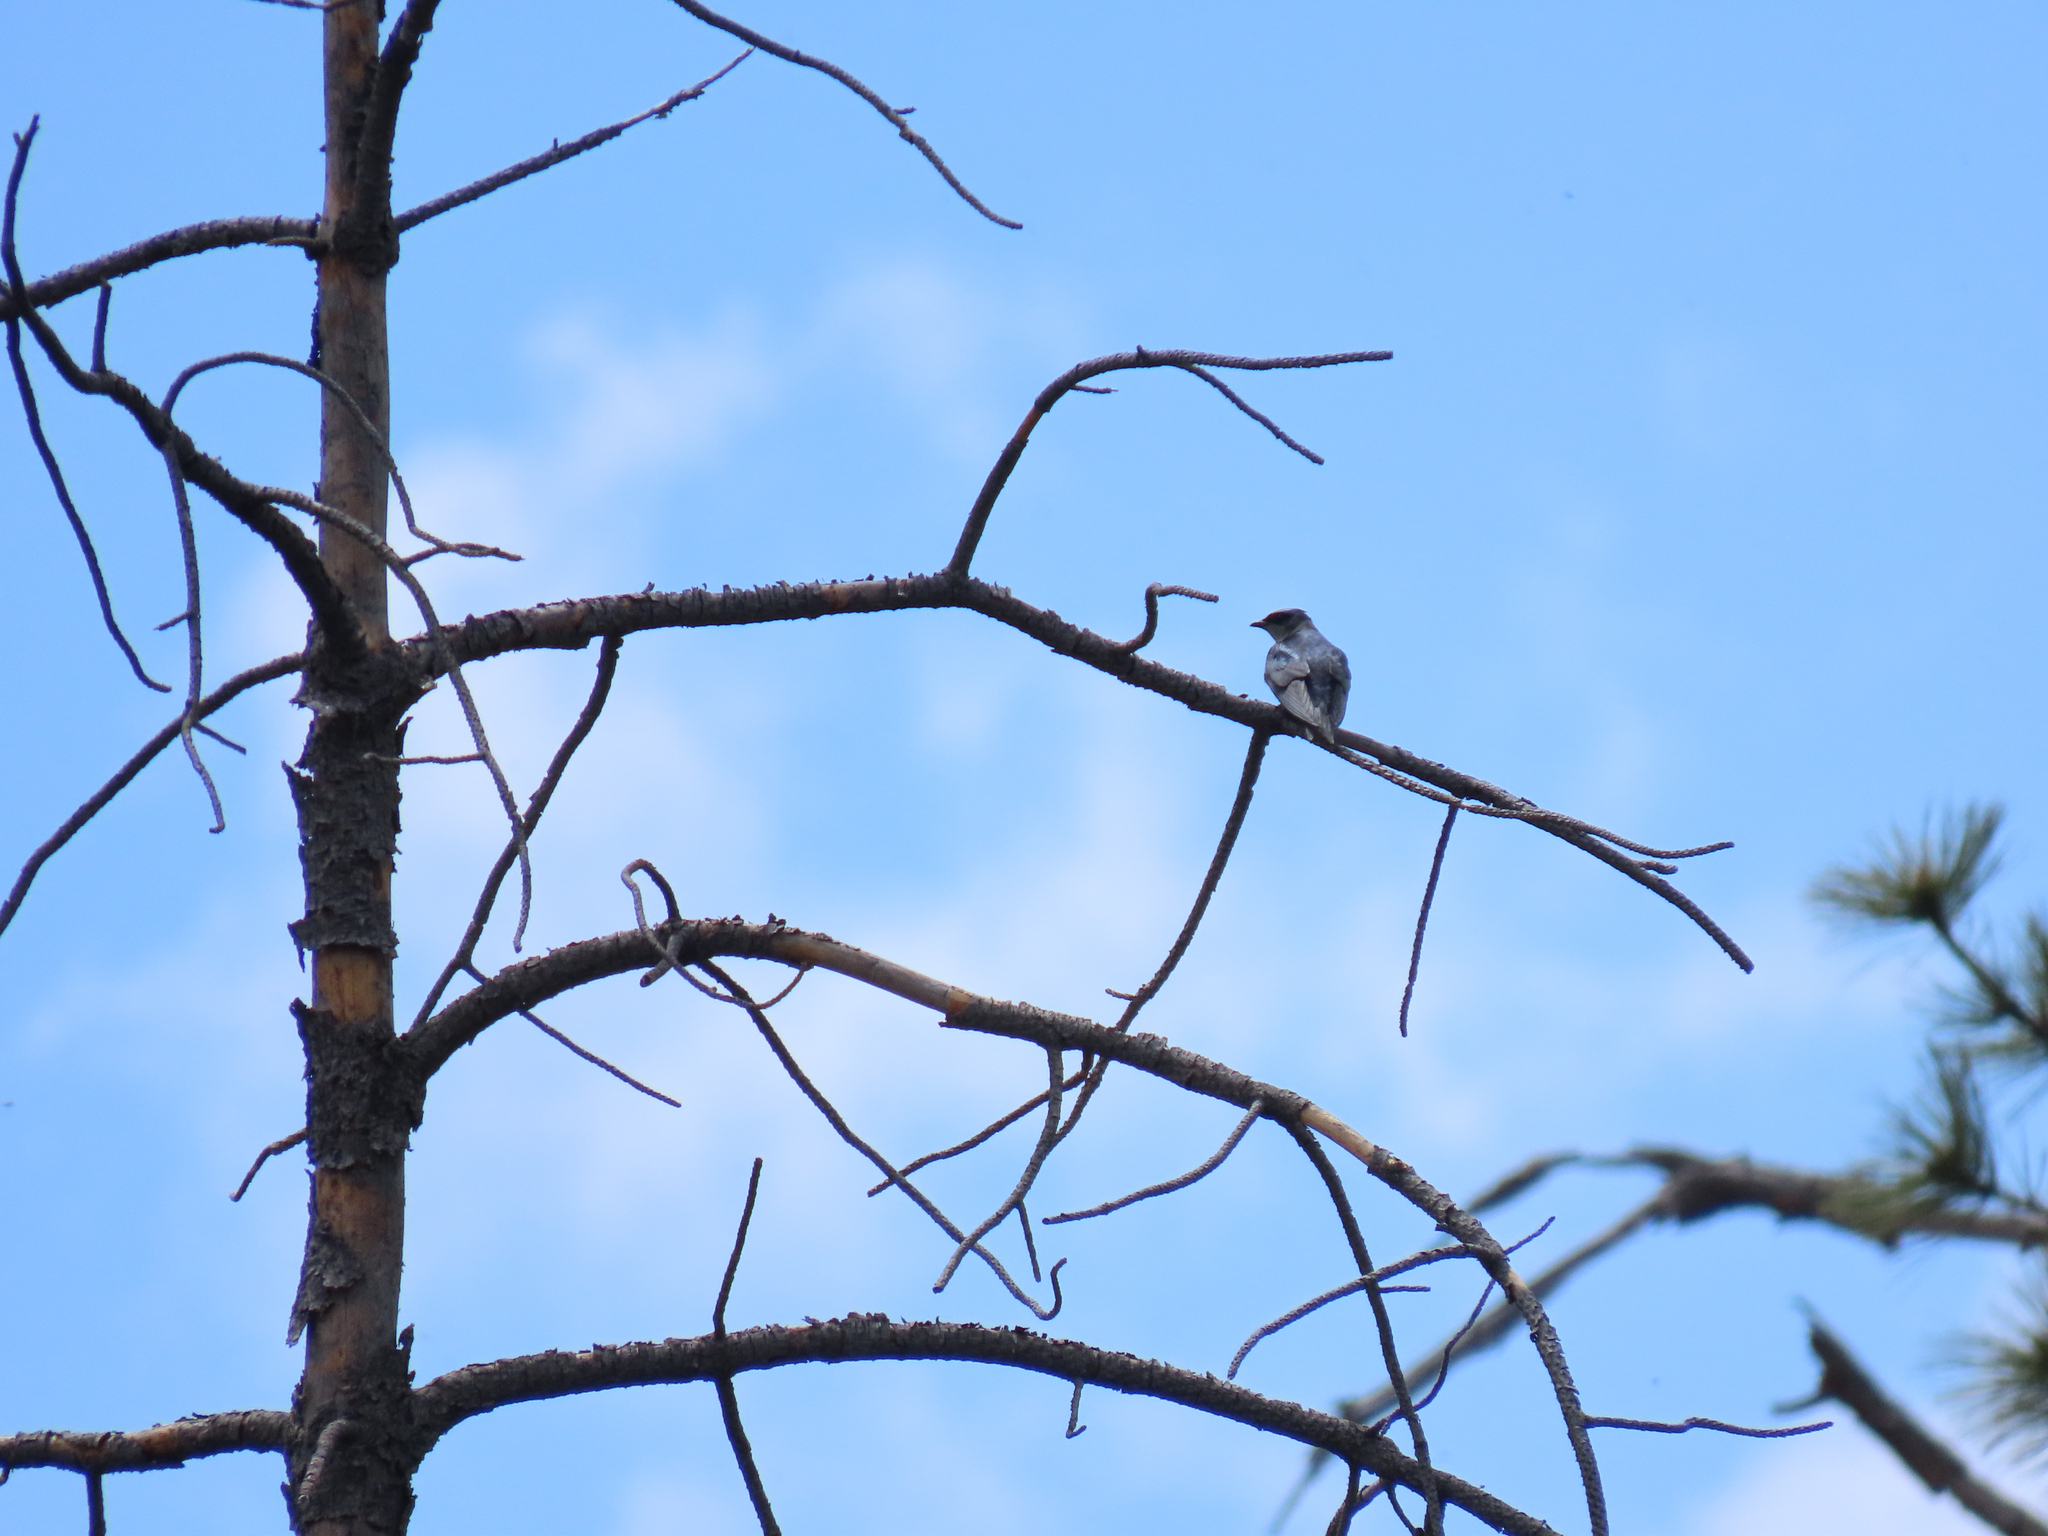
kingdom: Animalia
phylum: Chordata
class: Aves
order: Passeriformes
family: Hirundinidae
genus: Progne
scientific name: Progne subis
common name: Purple martin
